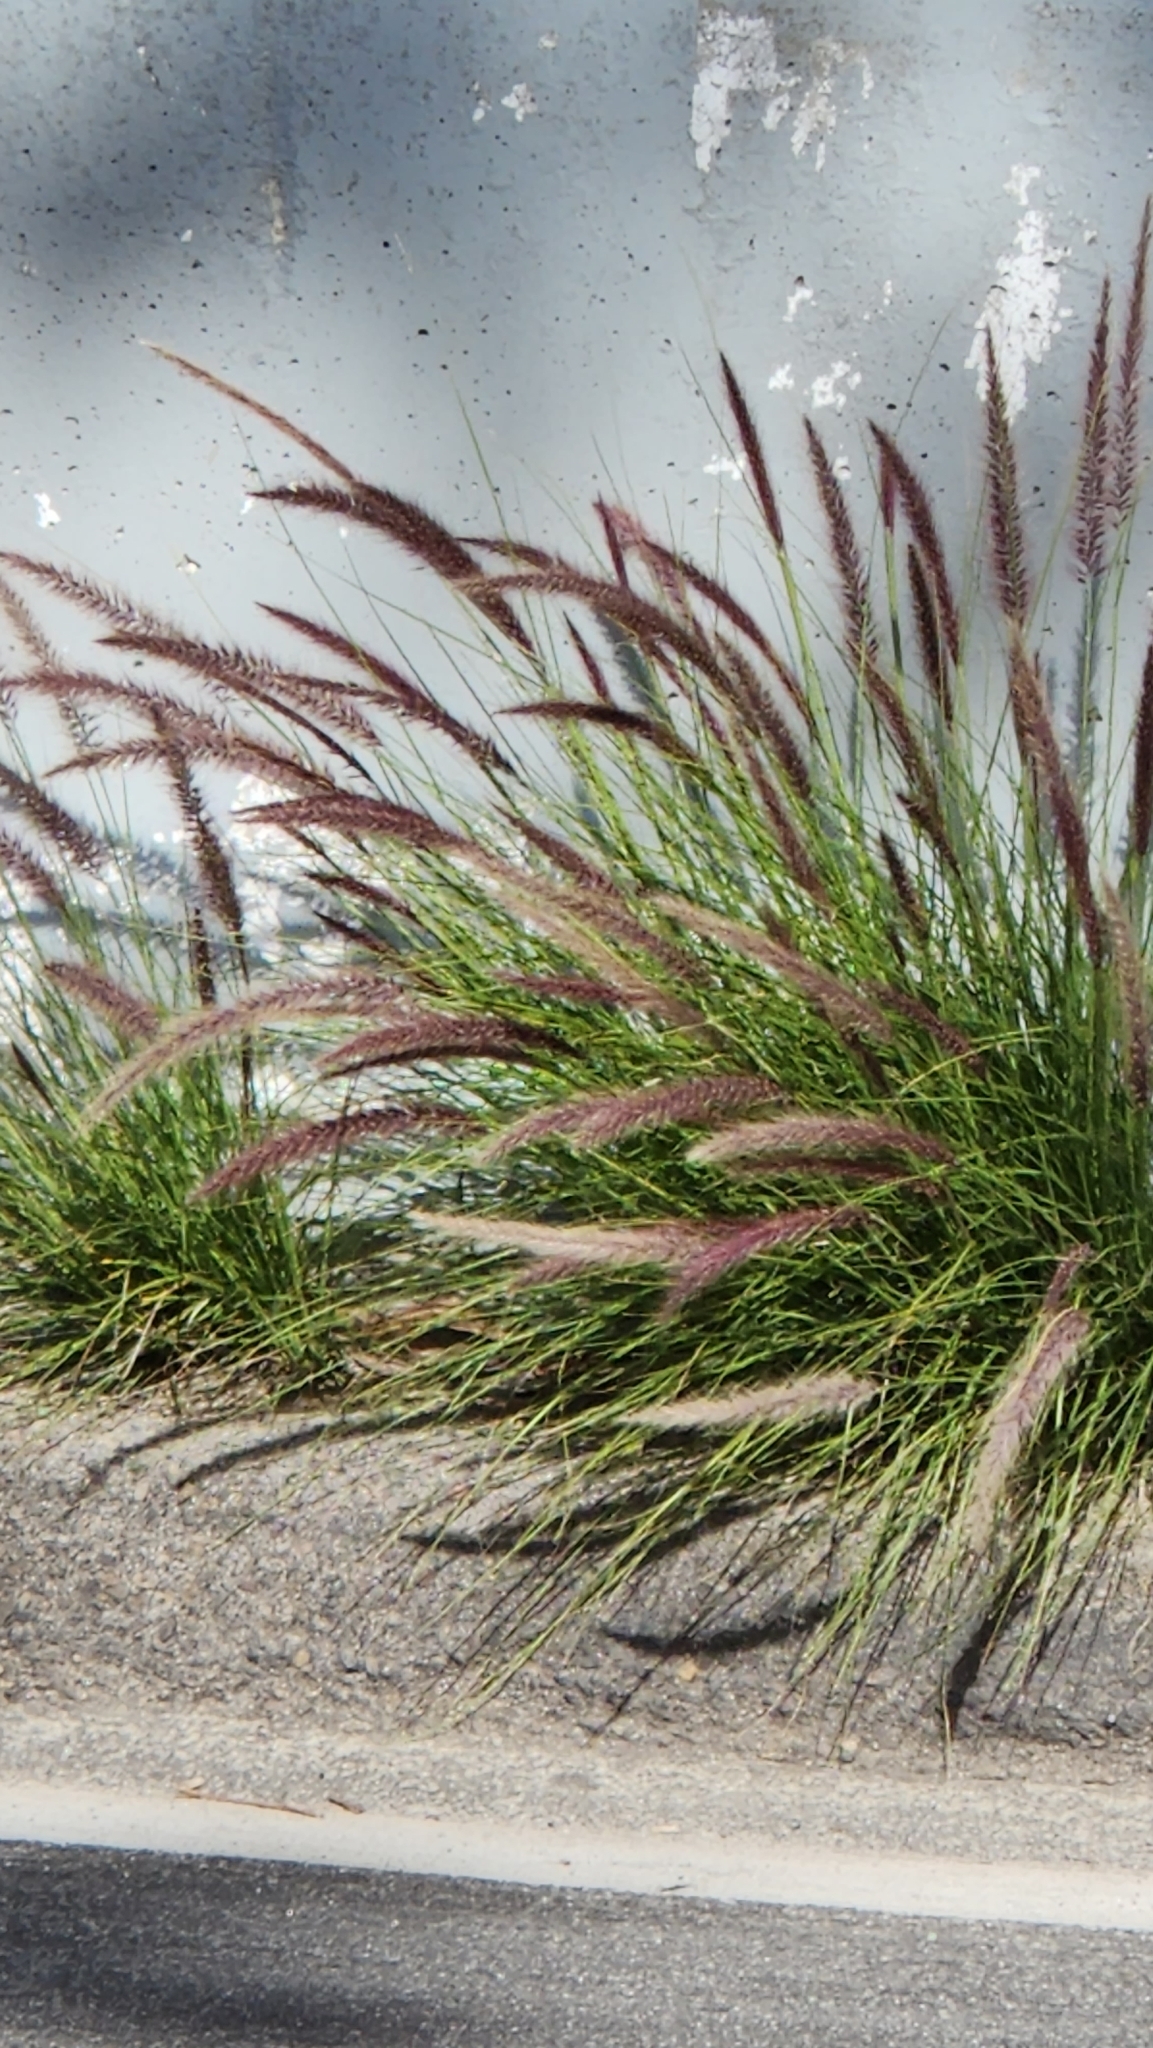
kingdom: Plantae
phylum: Tracheophyta
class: Liliopsida
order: Poales
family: Poaceae
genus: Cenchrus
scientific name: Cenchrus setaceus
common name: Crimson fountaingrass
